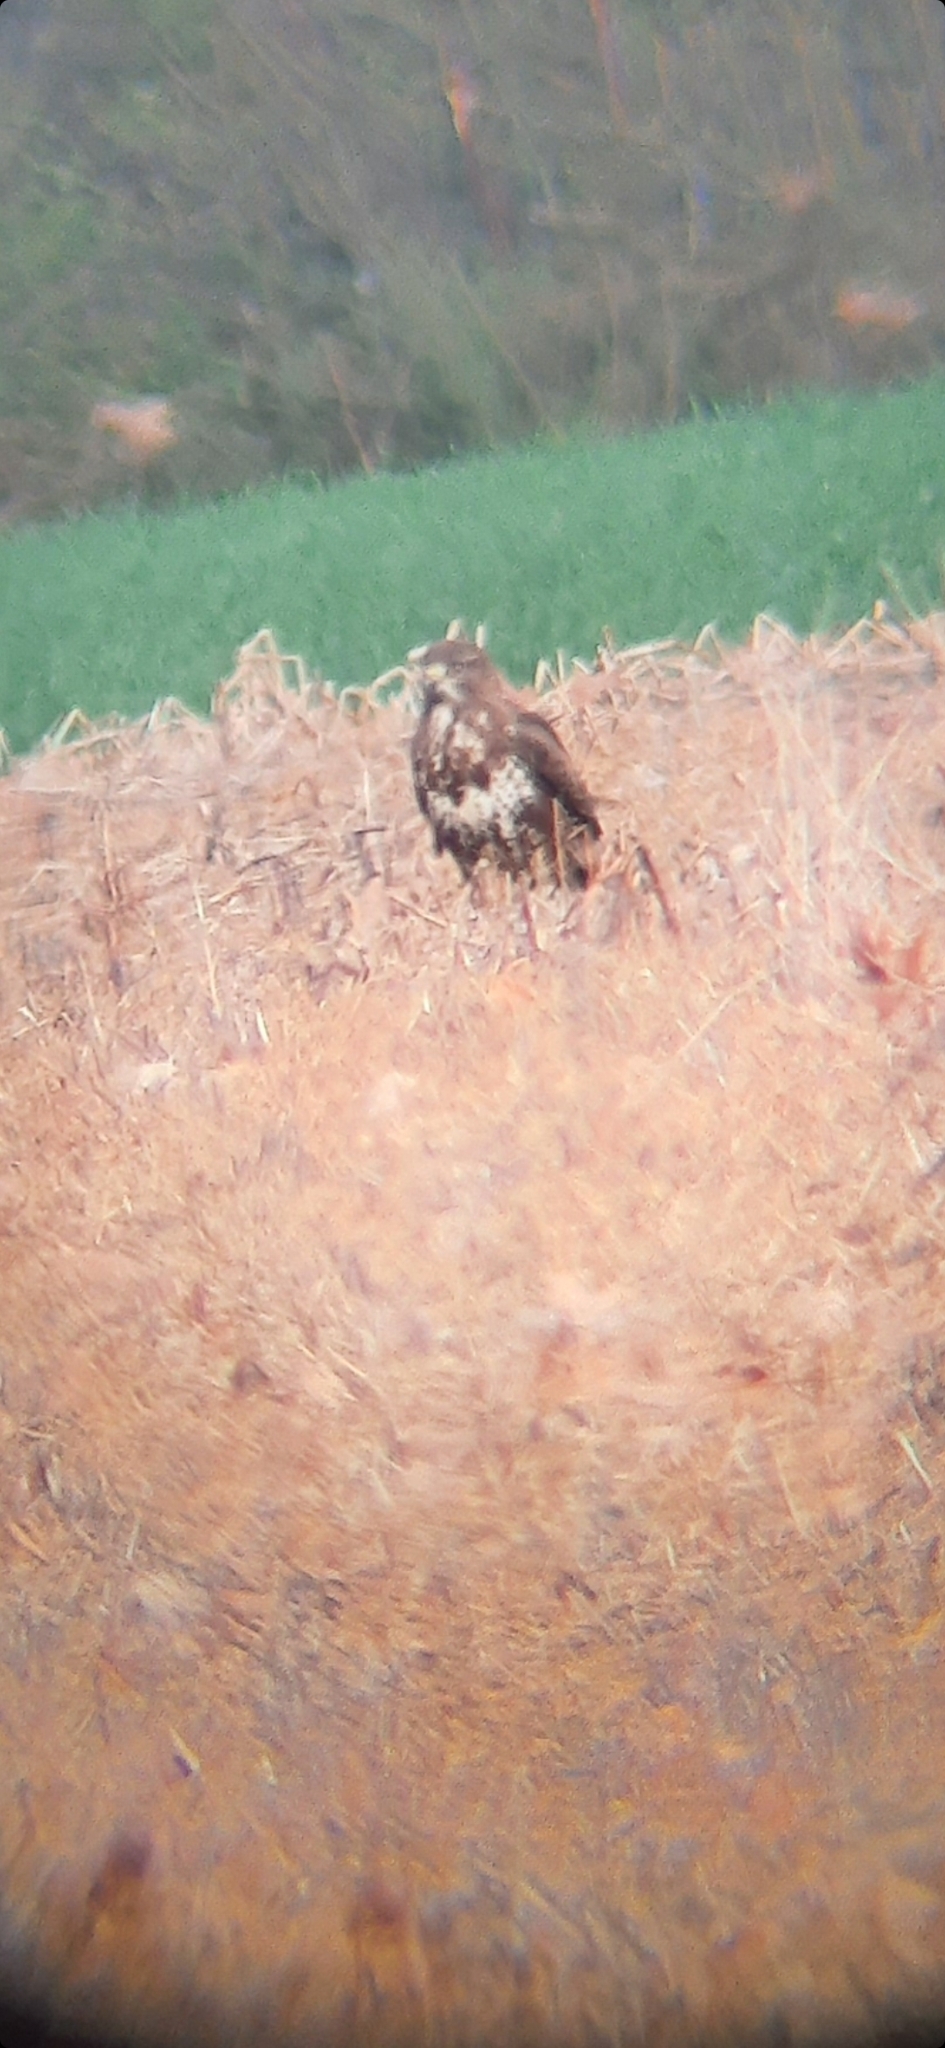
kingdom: Animalia
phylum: Chordata
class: Aves
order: Accipitriformes
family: Accipitridae
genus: Buteo
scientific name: Buteo buteo
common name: Common buzzard
